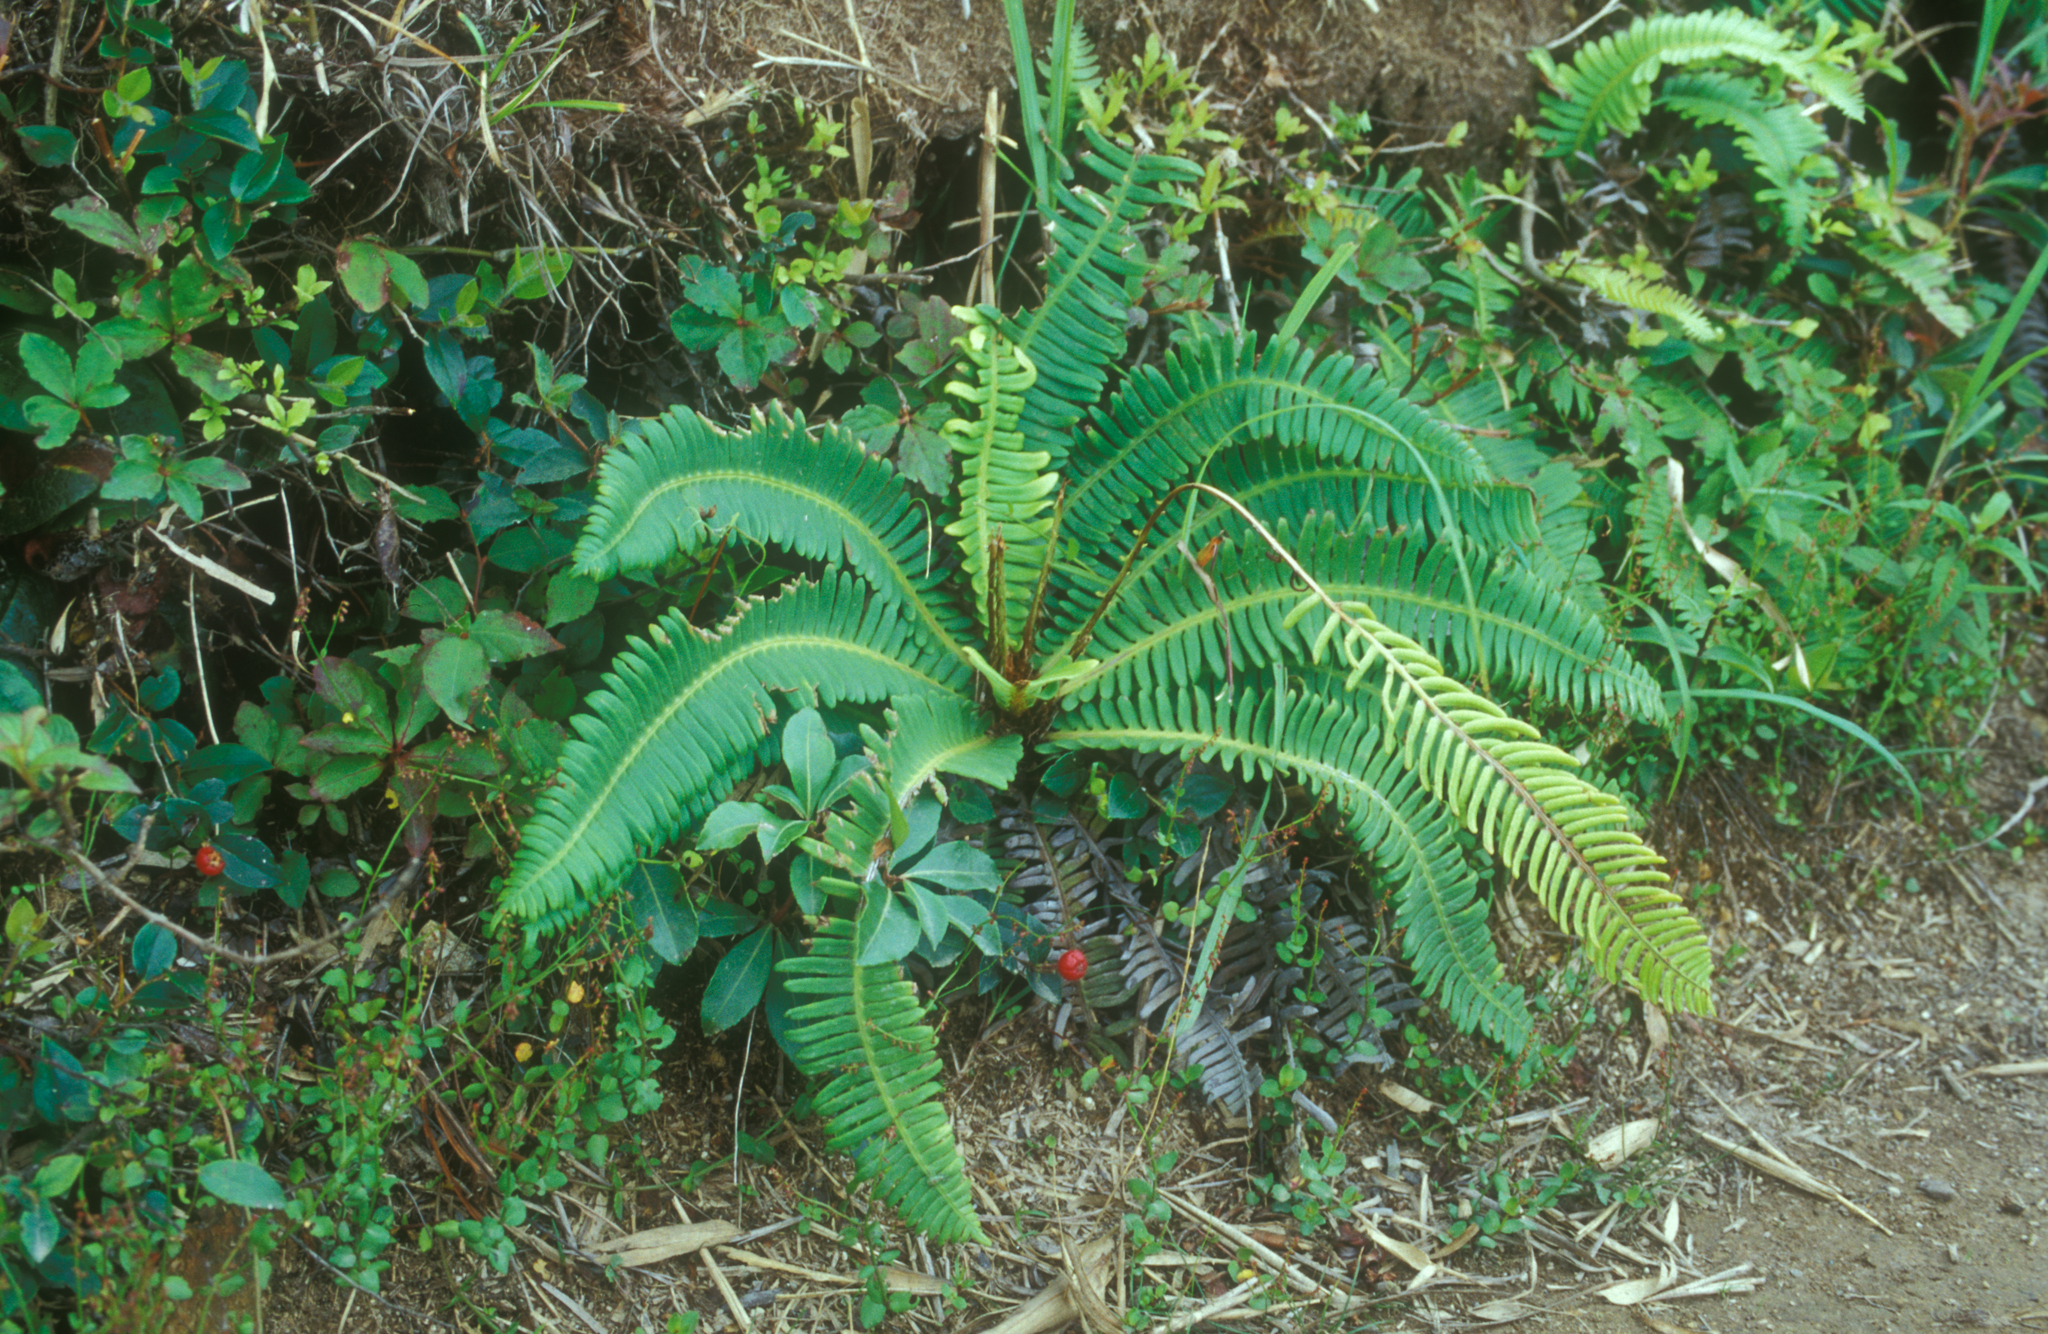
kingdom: Plantae
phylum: Tracheophyta
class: Polypodiopsida
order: Polypodiales
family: Blechnaceae
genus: Spicantopsis
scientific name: Spicantopsis niponica
